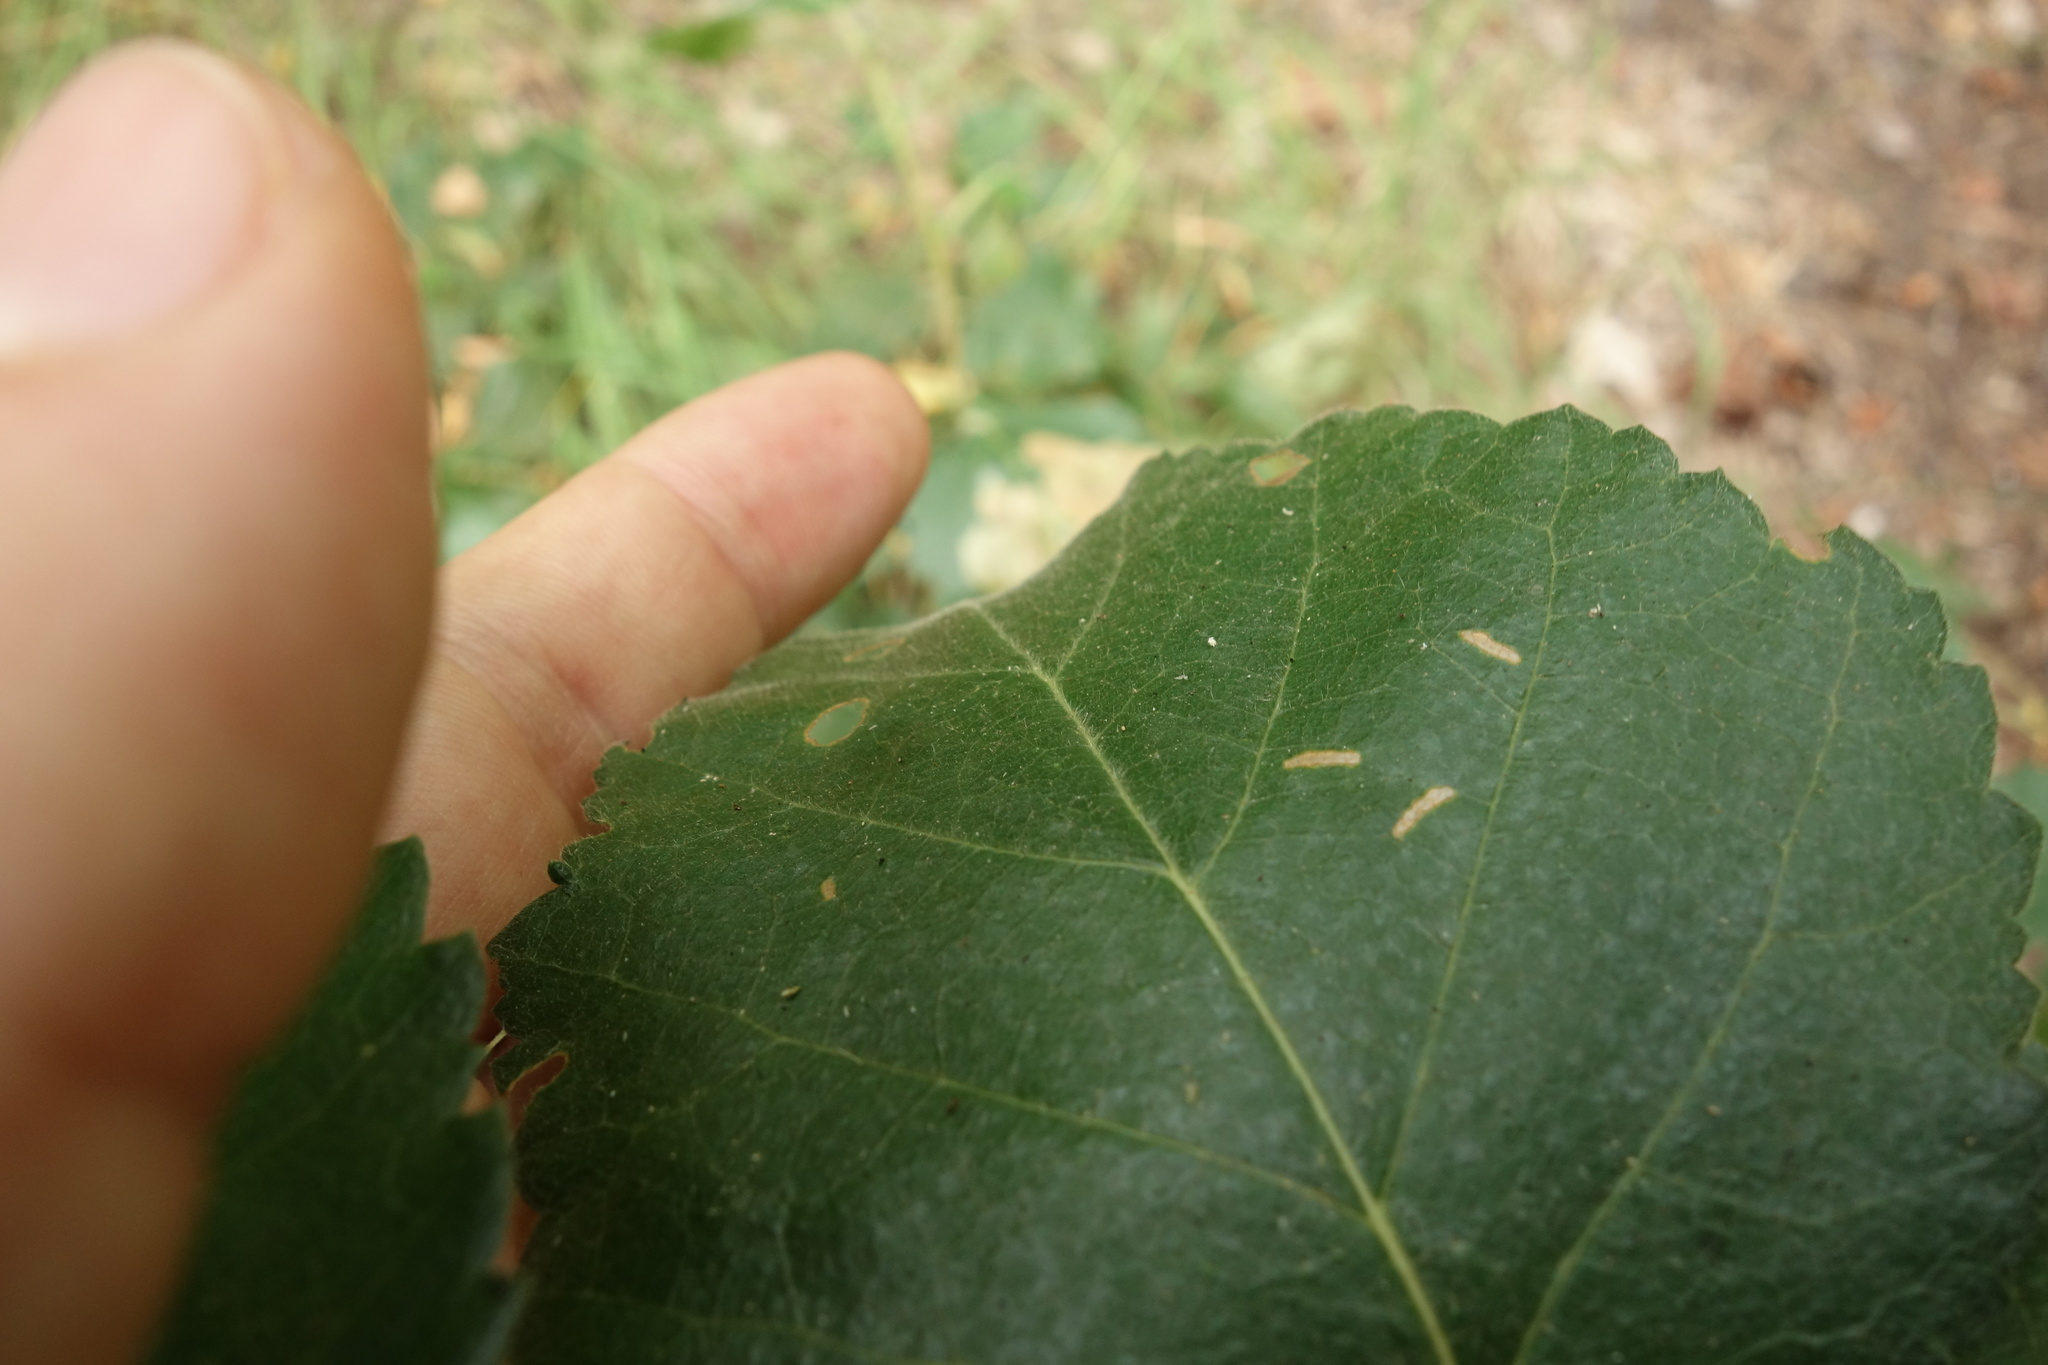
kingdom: Plantae
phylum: Tracheophyta
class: Magnoliopsida
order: Fagales
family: Betulaceae
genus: Betula
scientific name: Betula pubescens
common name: Downy birch
